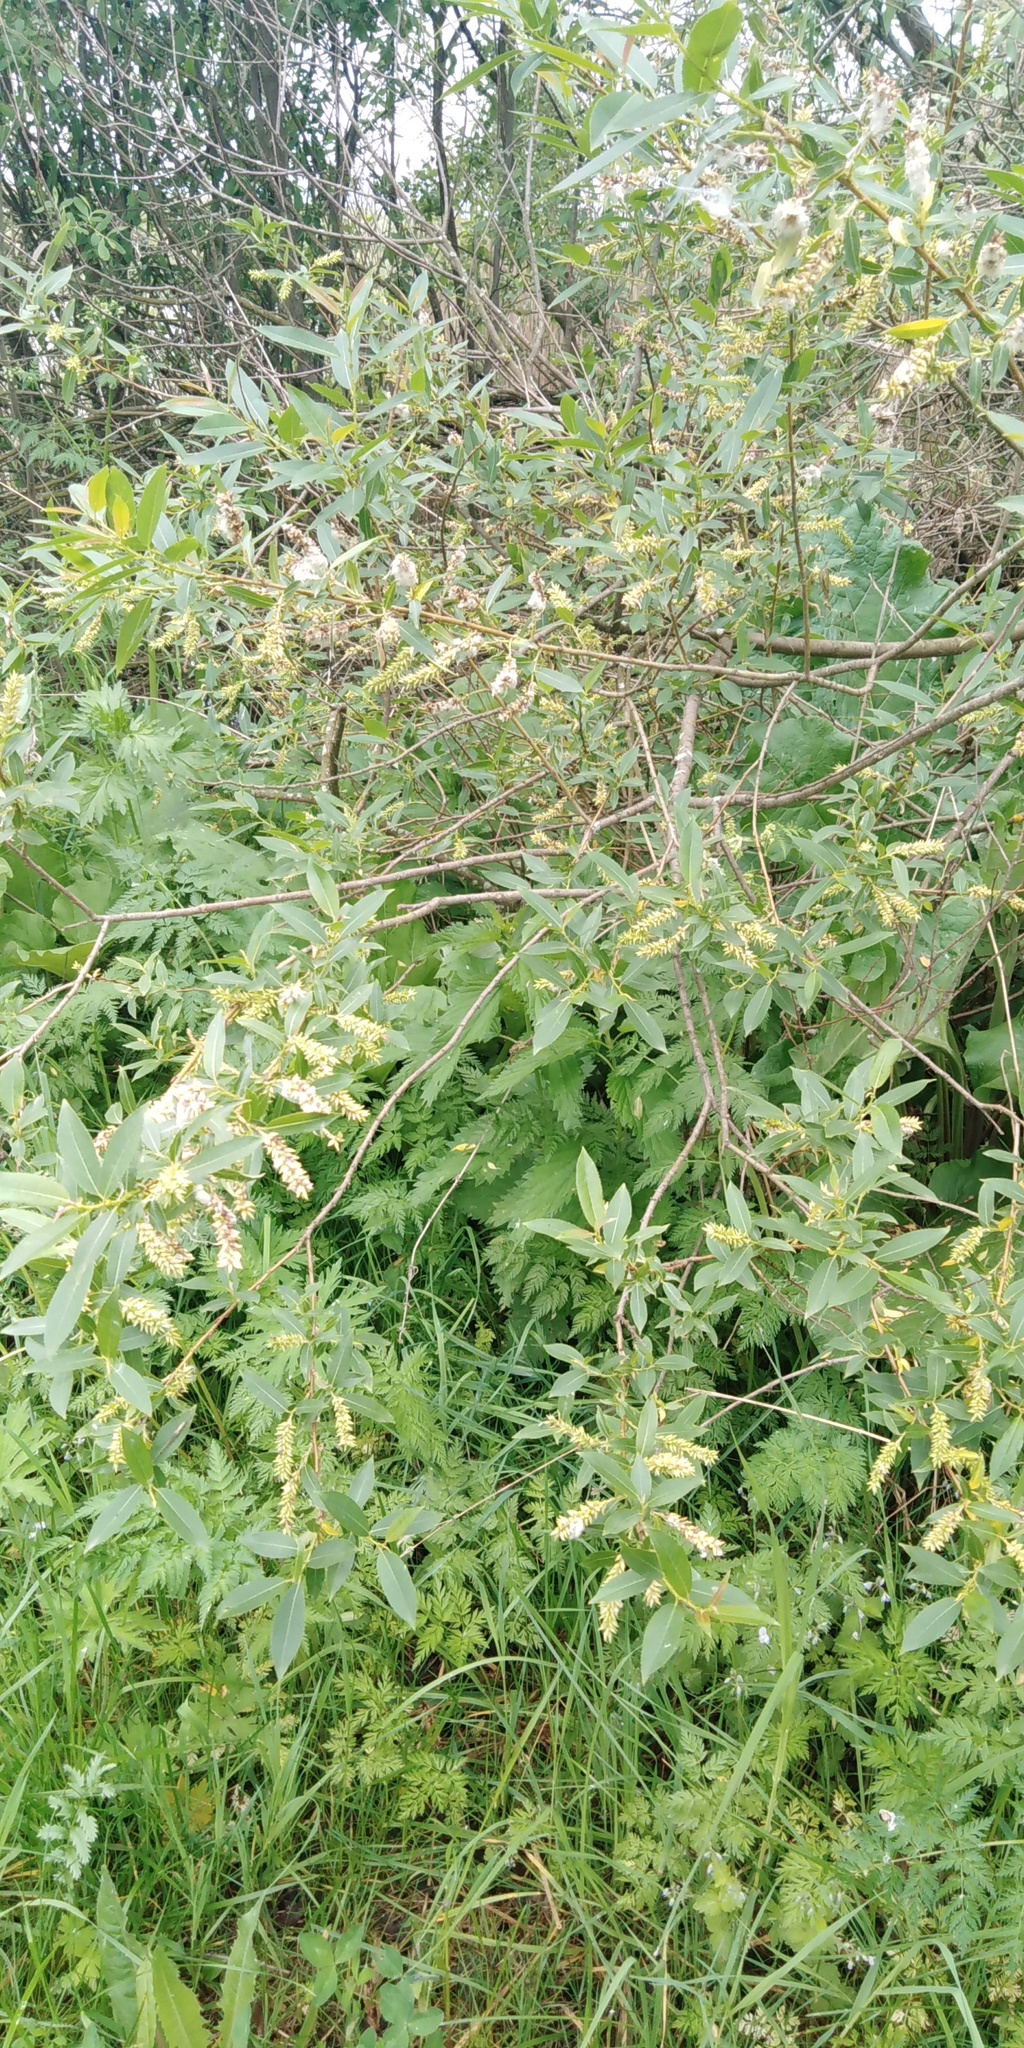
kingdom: Plantae
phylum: Tracheophyta
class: Magnoliopsida
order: Malpighiales
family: Salicaceae
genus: Salix
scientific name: Salix triandra
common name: Almond willow
